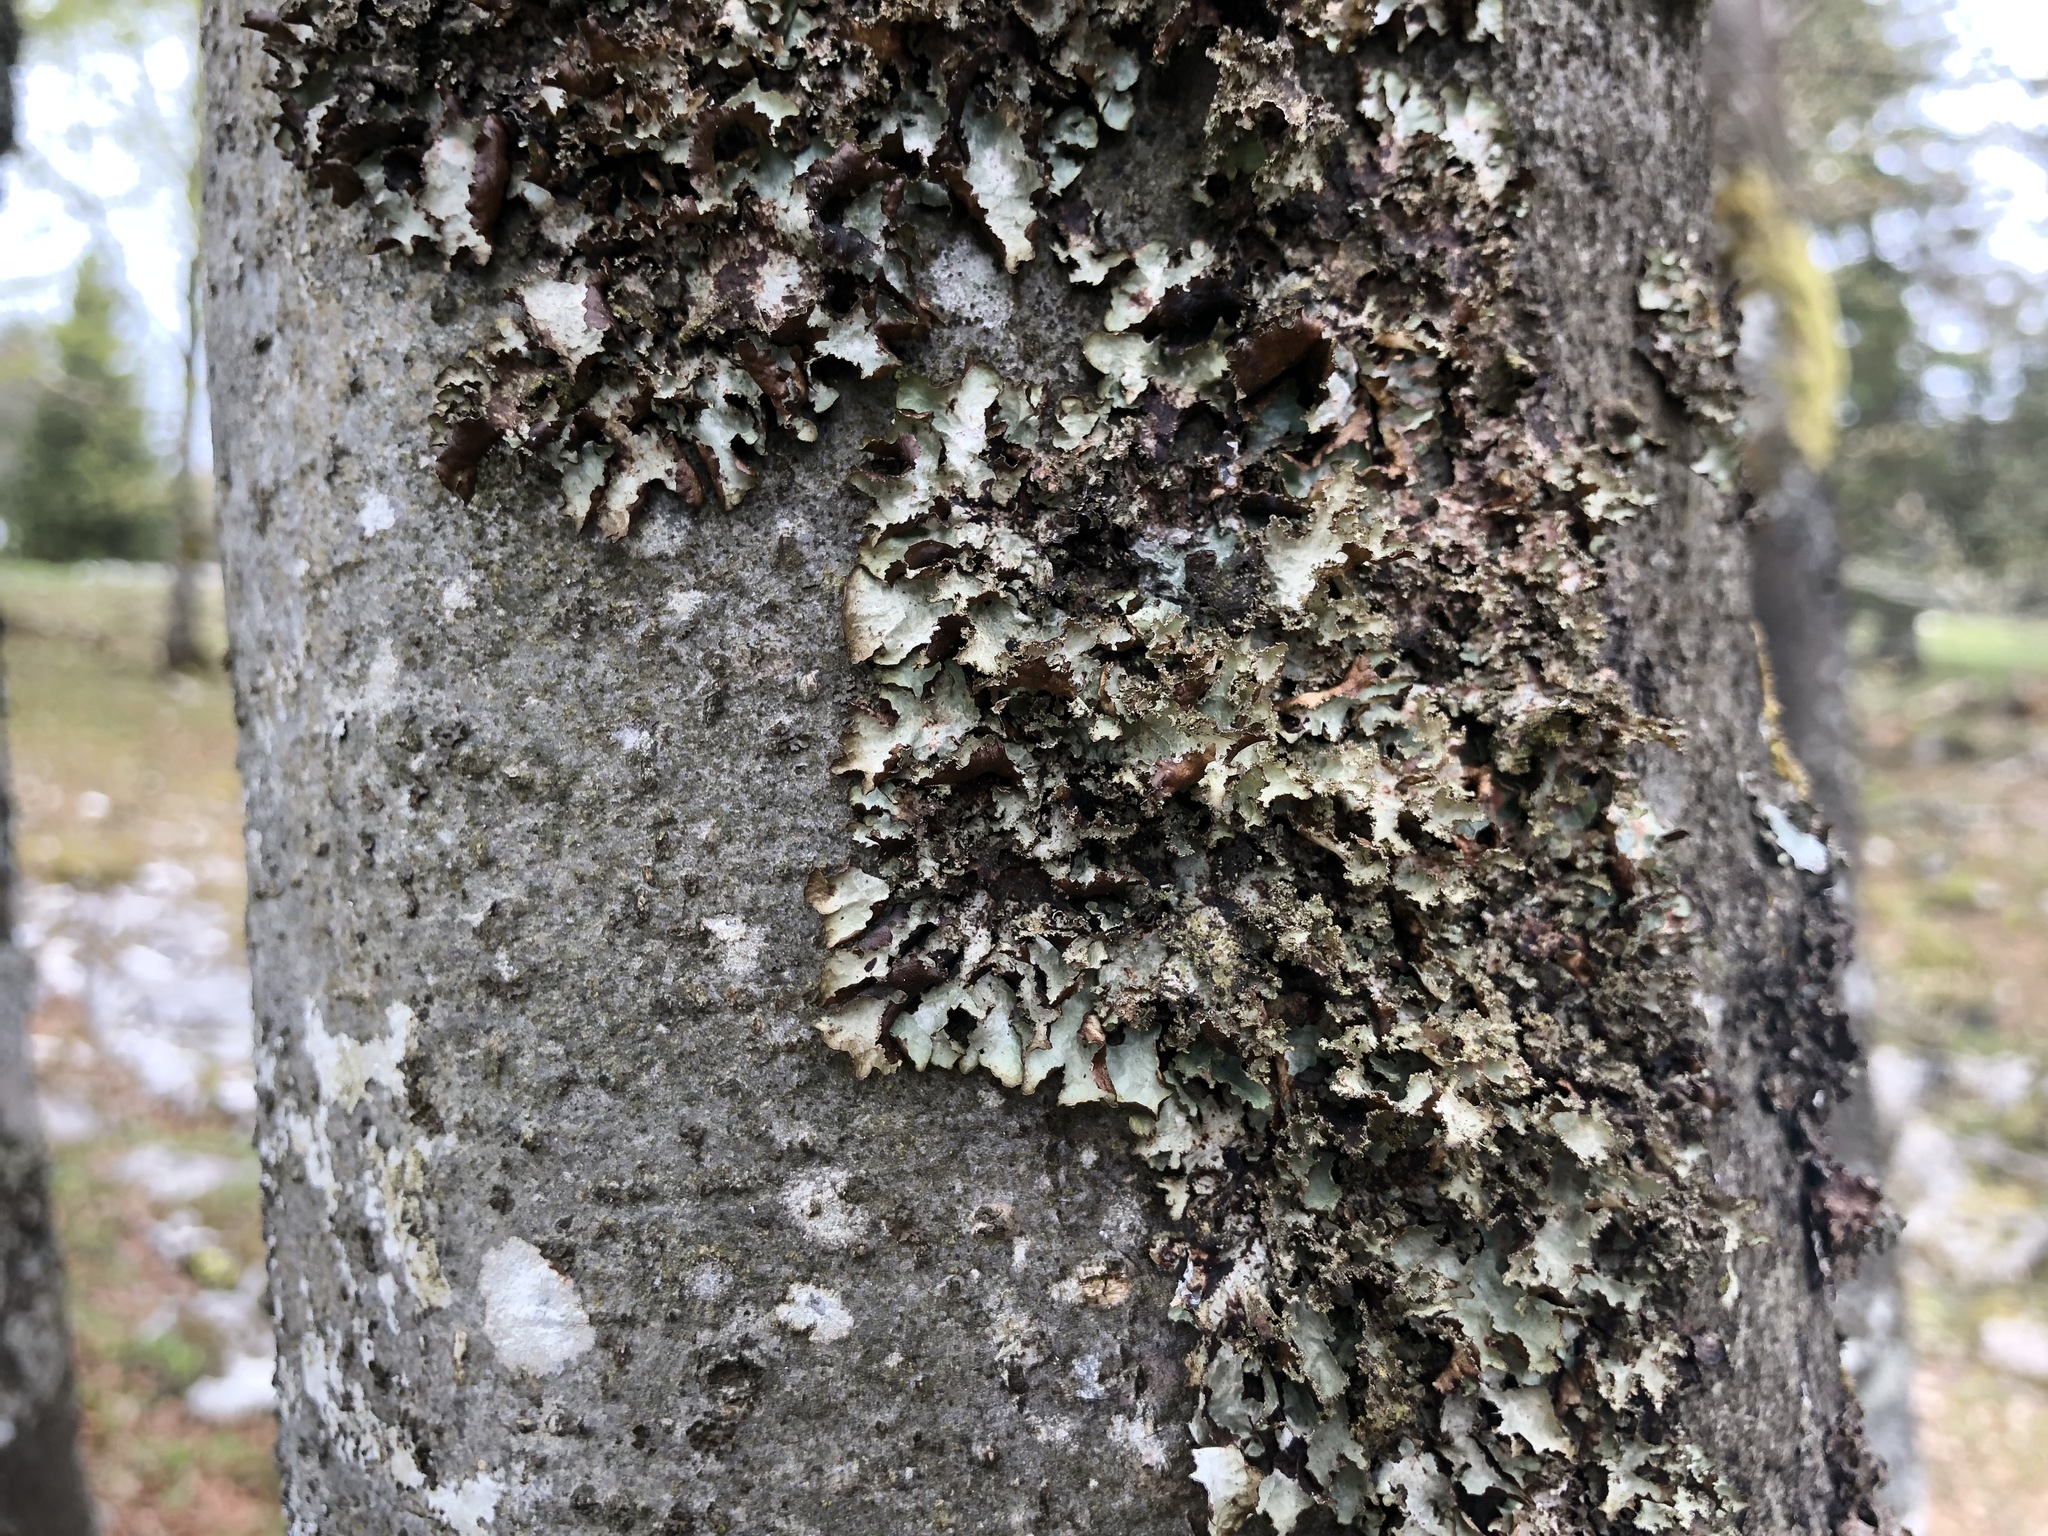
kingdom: Fungi
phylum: Ascomycota
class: Lecanoromycetes
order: Lecanorales
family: Parmeliaceae
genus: Platismatia
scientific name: Platismatia glauca
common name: Varied rag lichen
